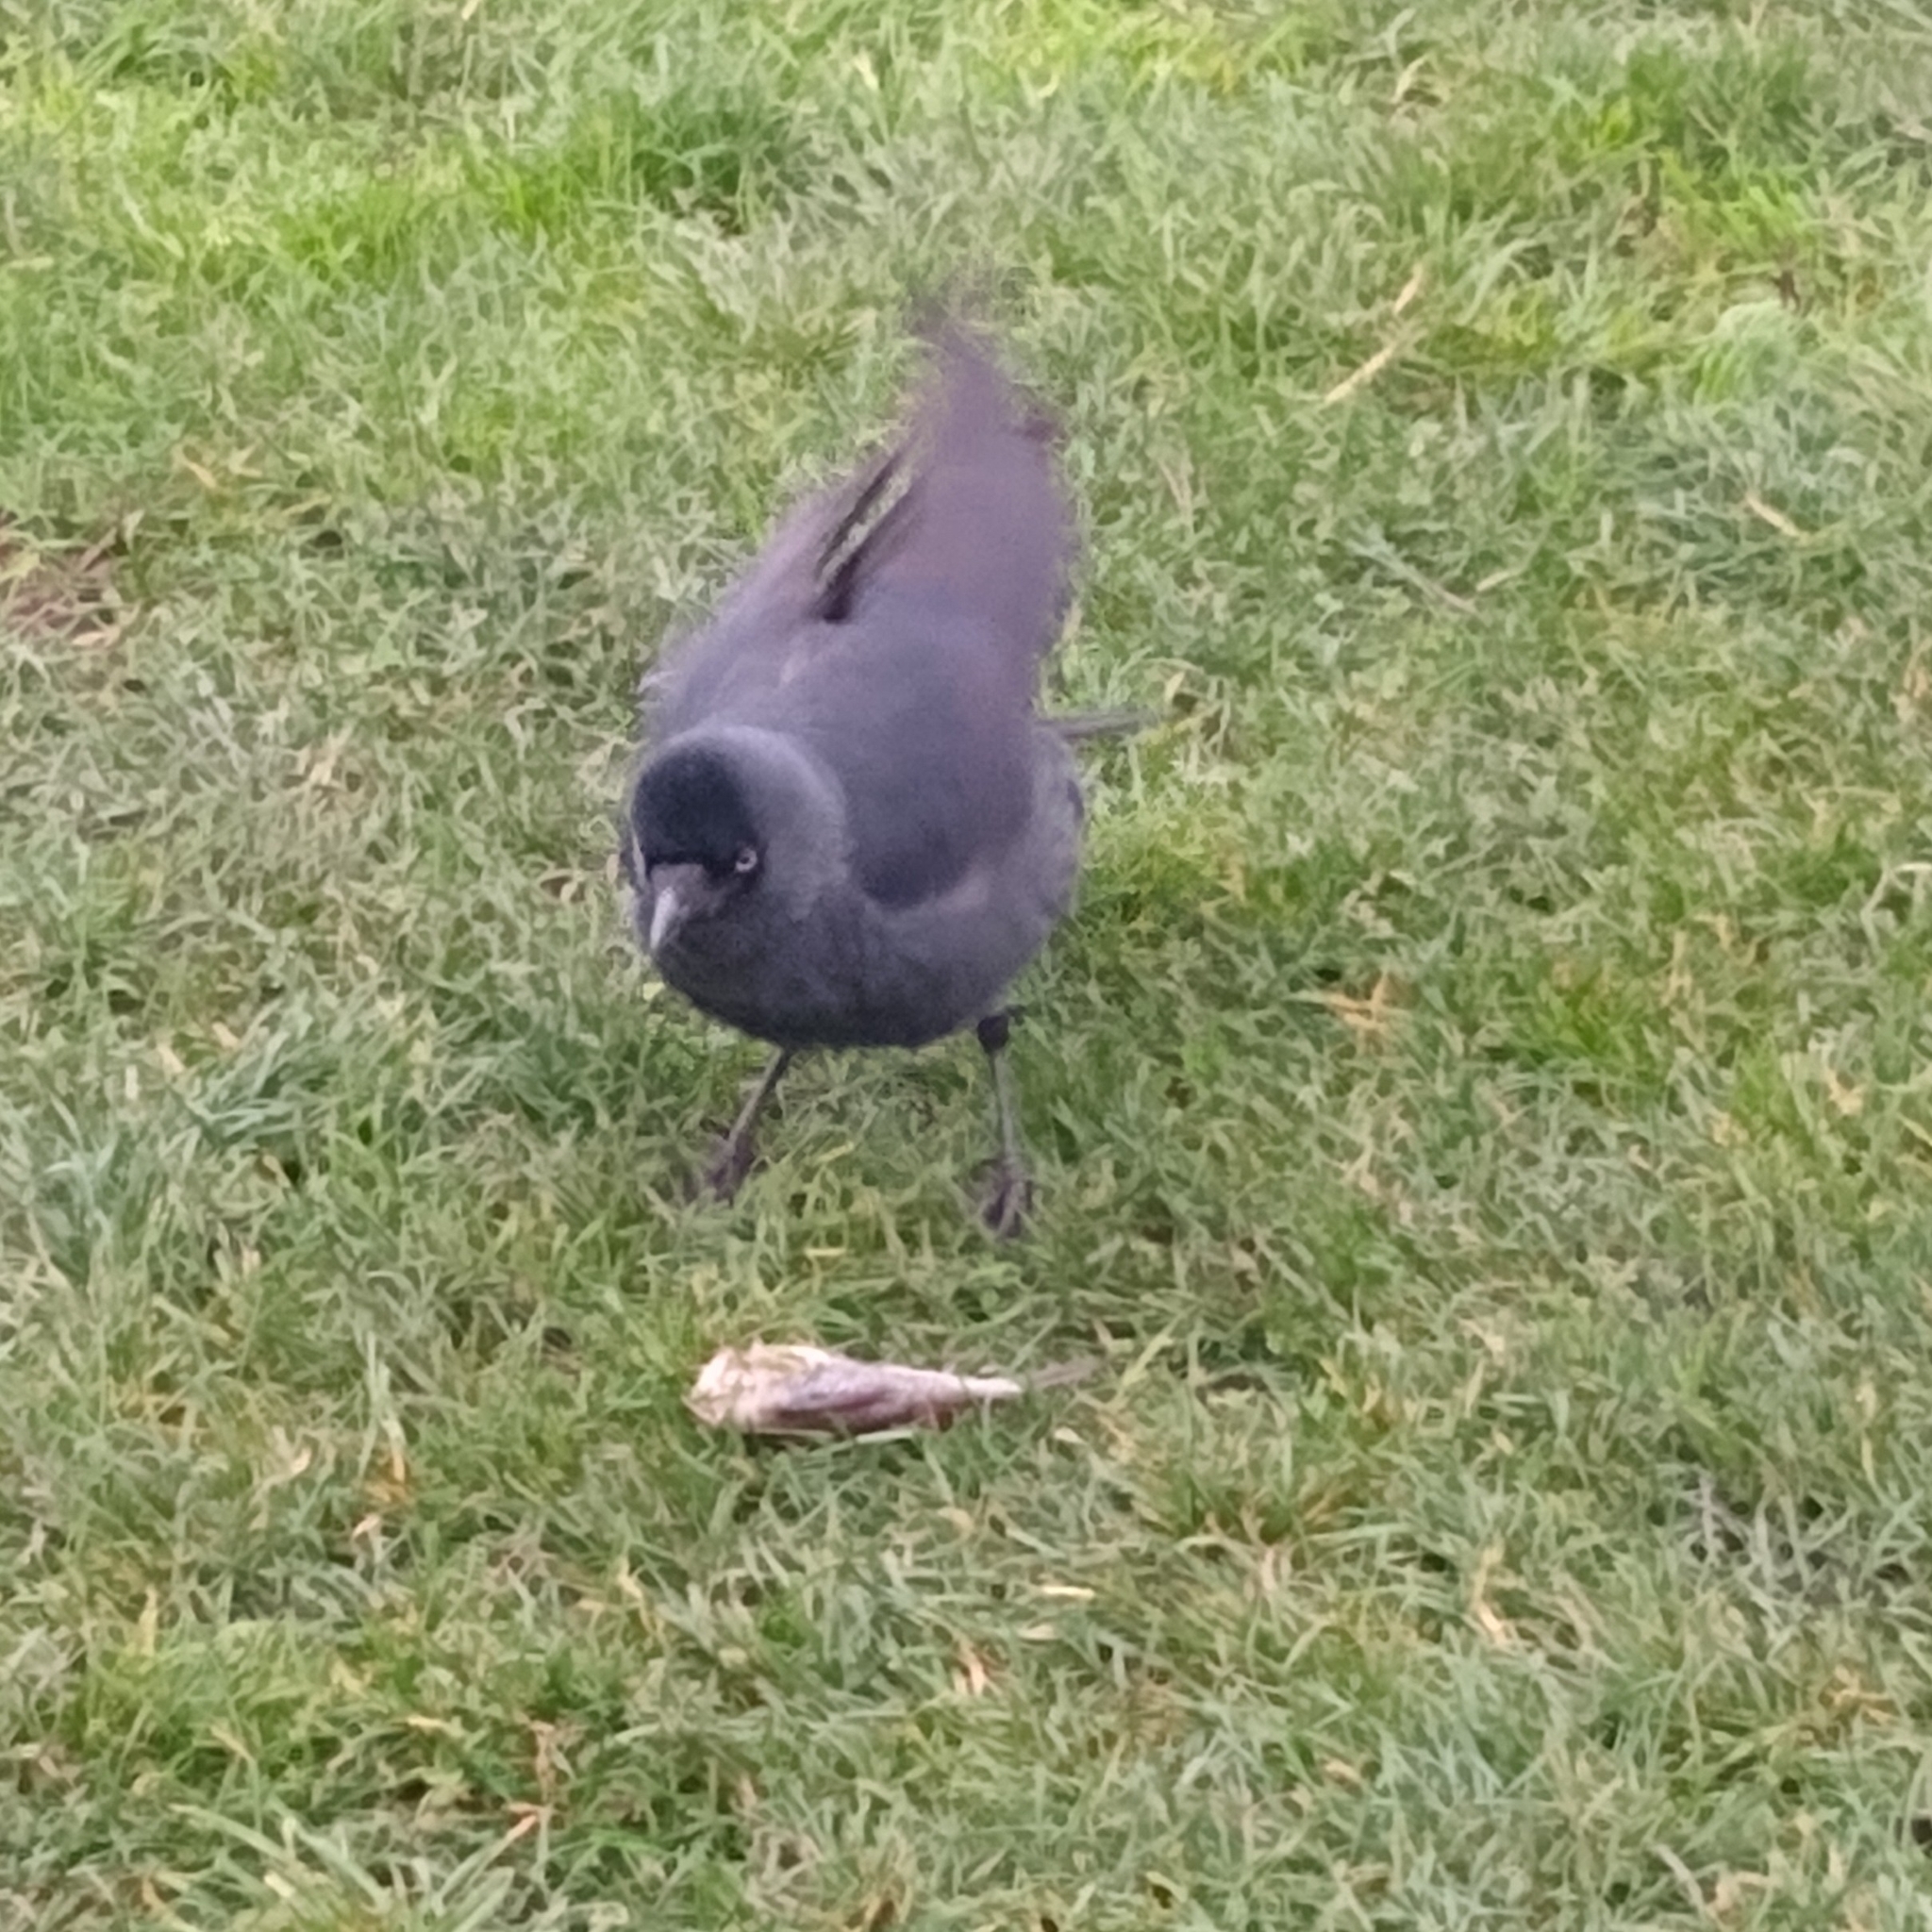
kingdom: Animalia
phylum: Chordata
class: Aves
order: Passeriformes
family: Corvidae
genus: Coloeus
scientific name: Coloeus monedula
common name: Western jackdaw
